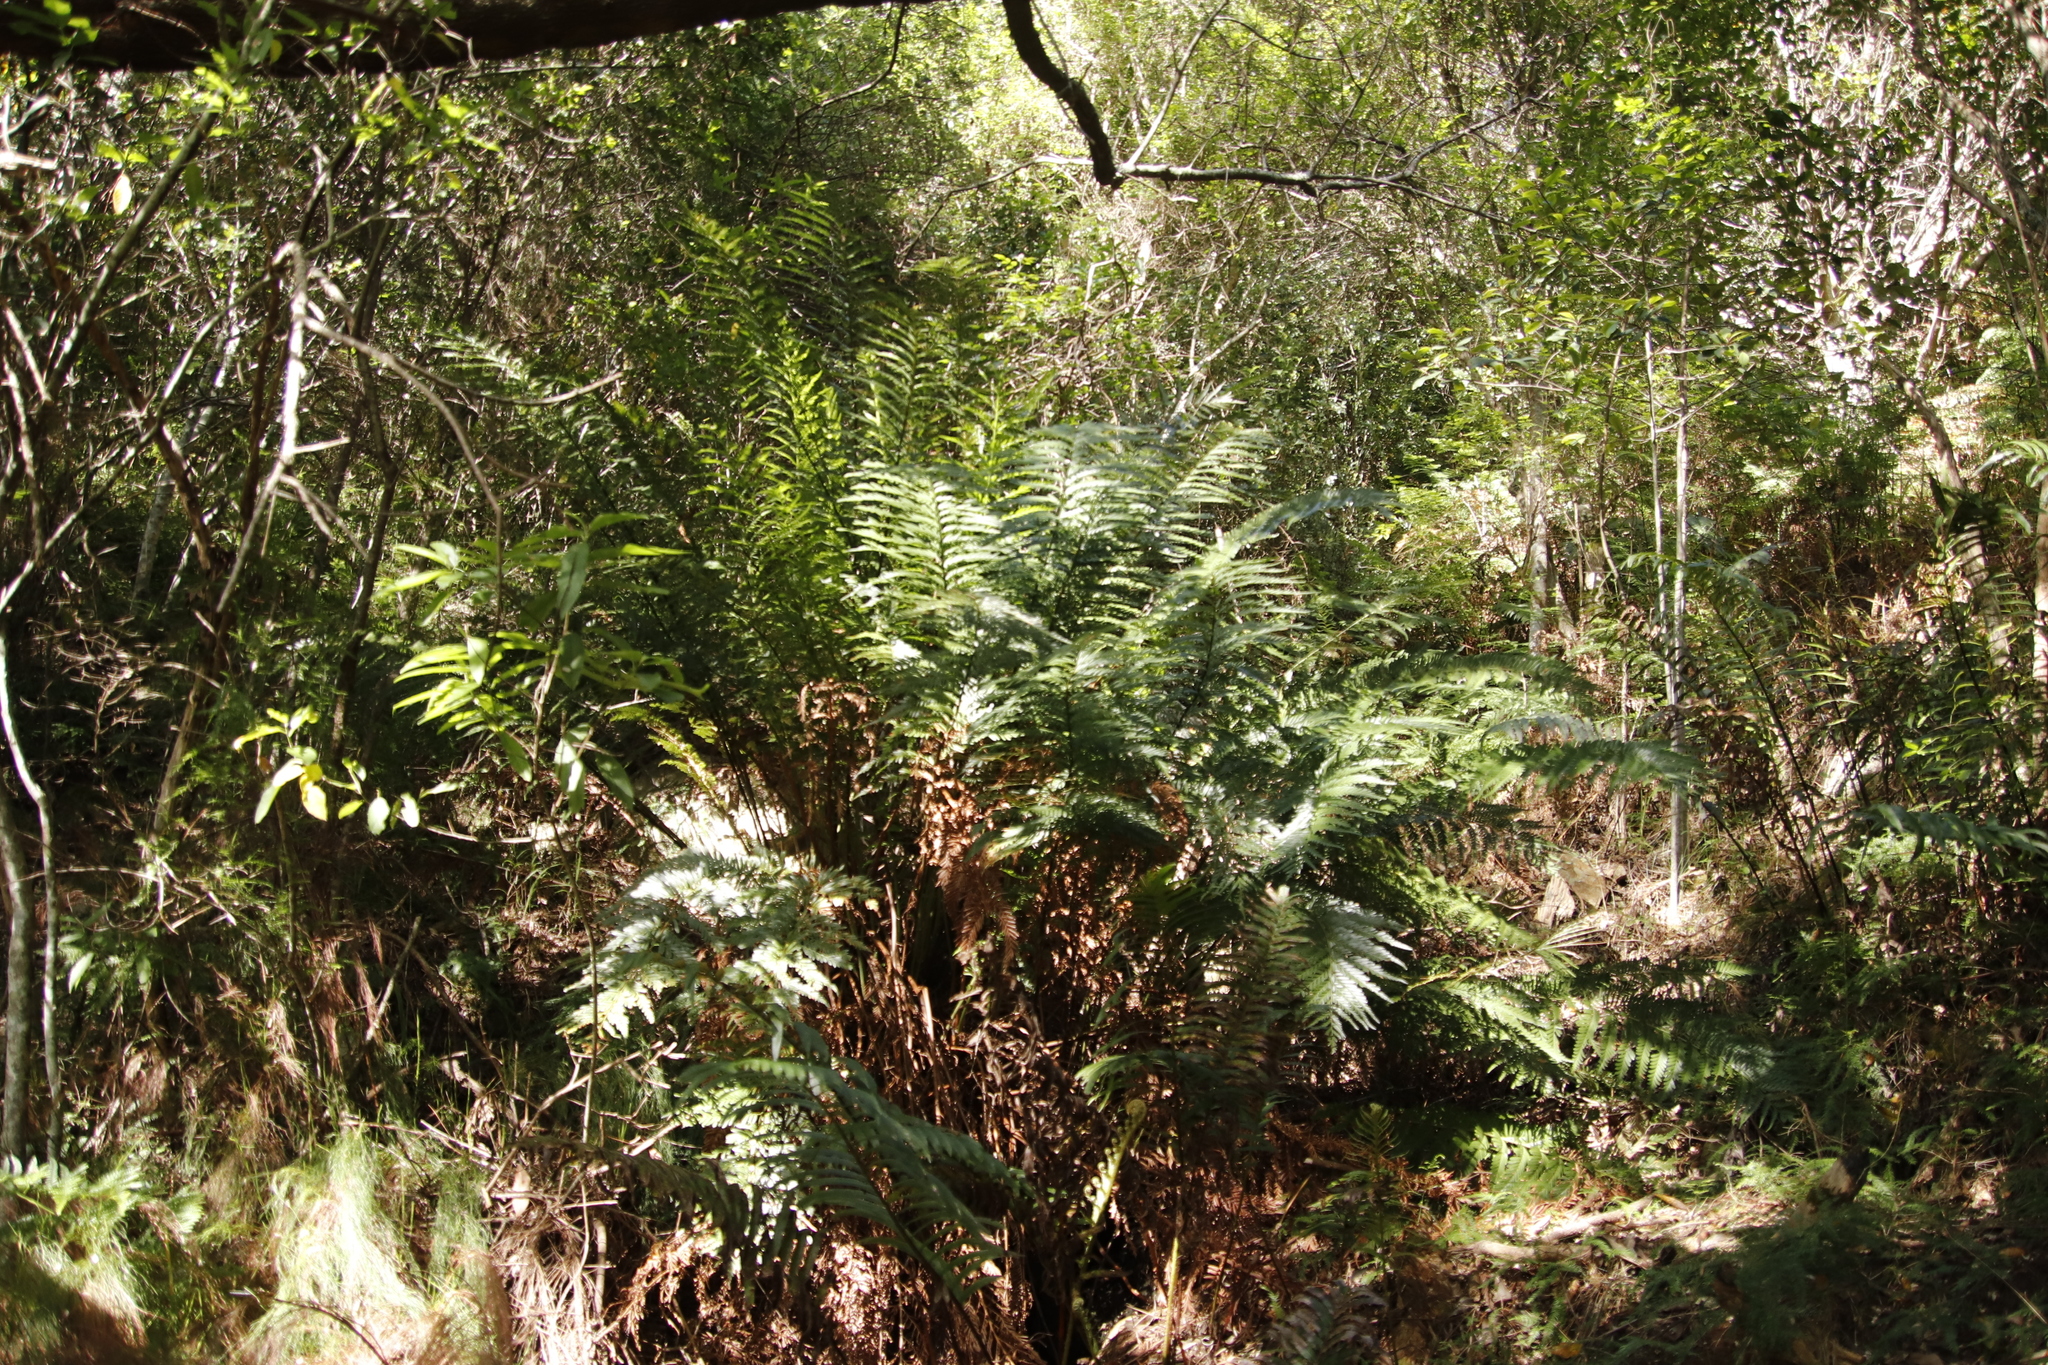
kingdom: Plantae
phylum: Tracheophyta
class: Polypodiopsida
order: Osmundales
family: Osmundaceae
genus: Todea
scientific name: Todea barbara
